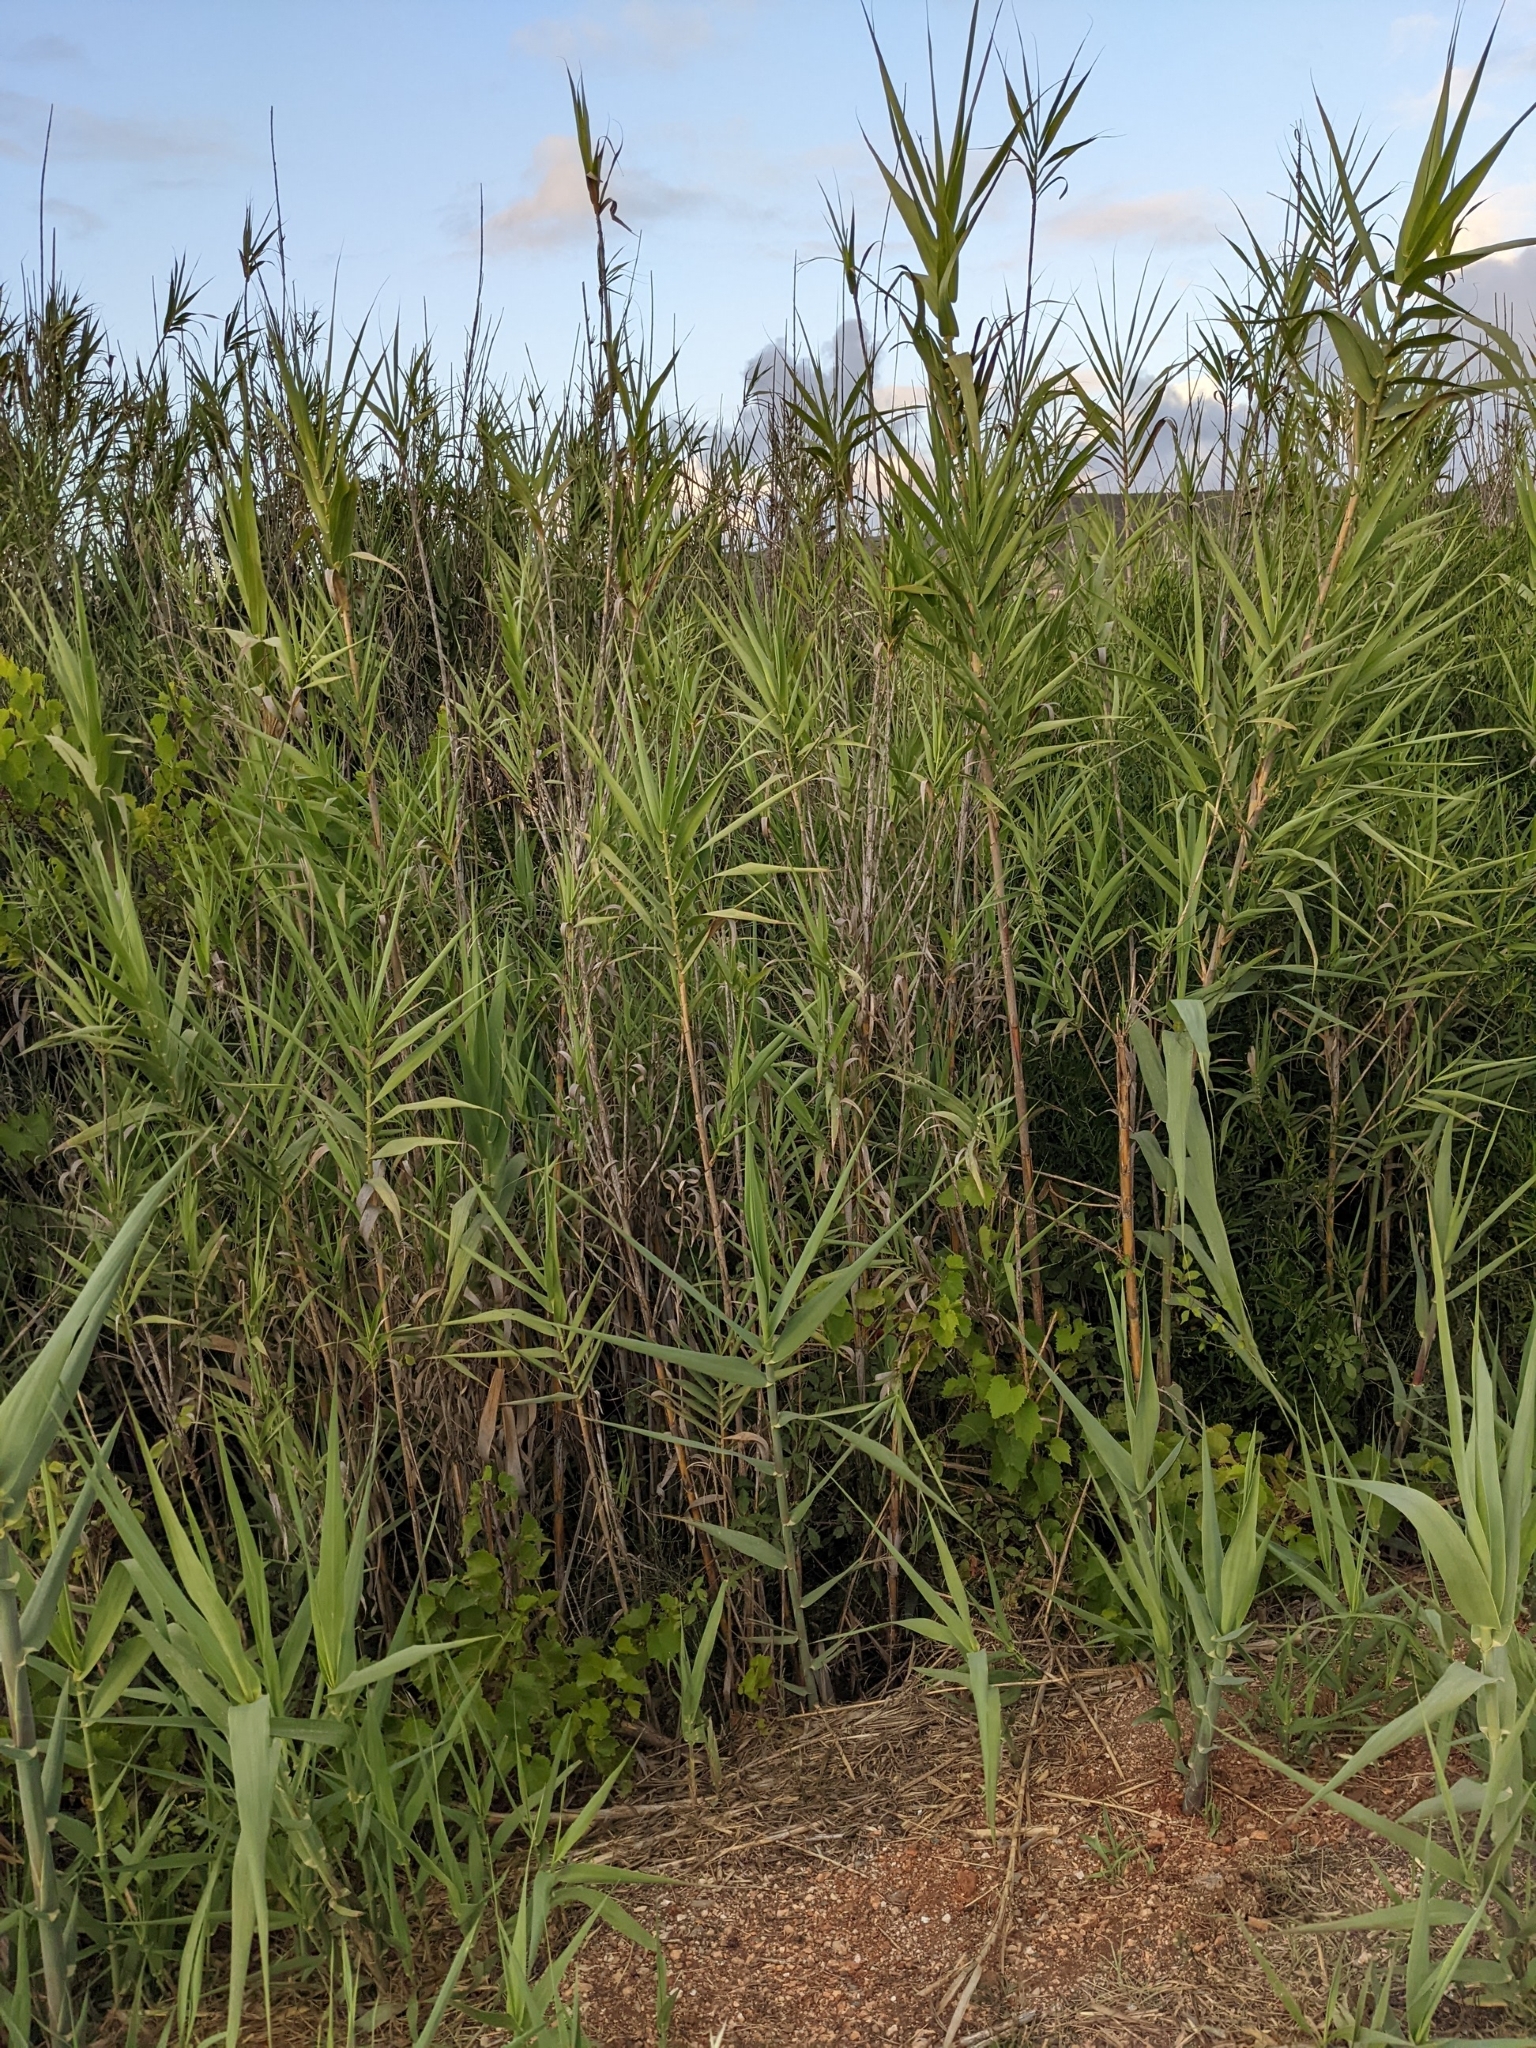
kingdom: Plantae
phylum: Tracheophyta
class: Liliopsida
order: Poales
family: Poaceae
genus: Arundo
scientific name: Arundo donax
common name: Giant reed
